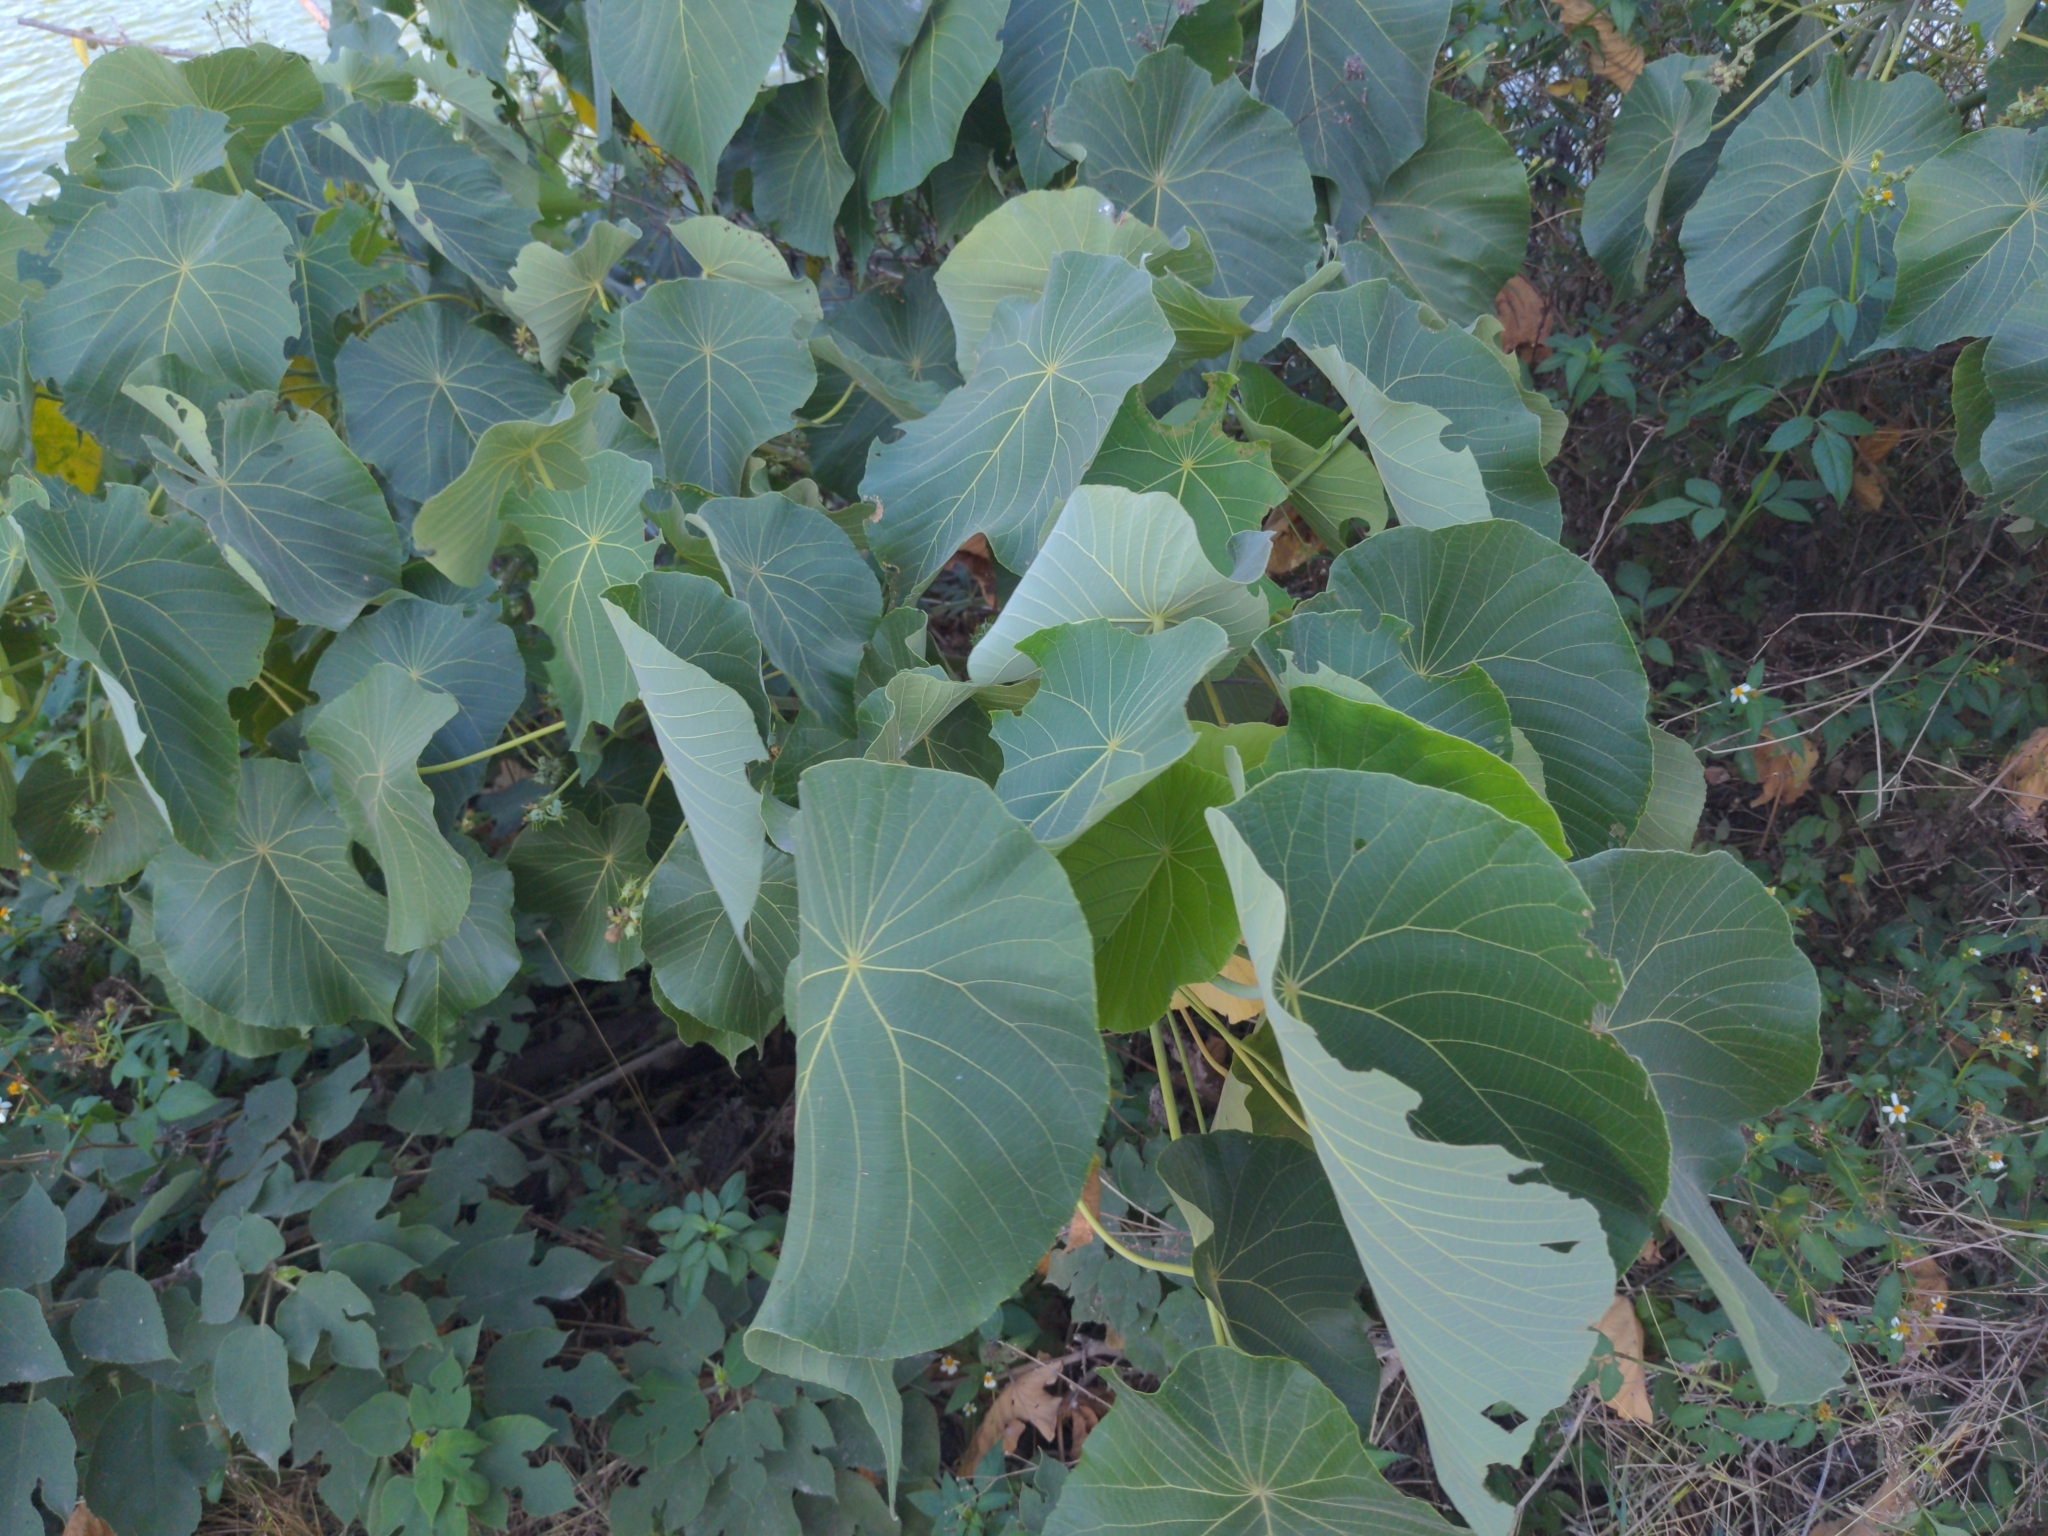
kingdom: Plantae
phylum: Tracheophyta
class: Magnoliopsida
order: Malpighiales
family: Euphorbiaceae
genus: Macaranga
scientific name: Macaranga tanarius
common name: Parasol leaf tree
